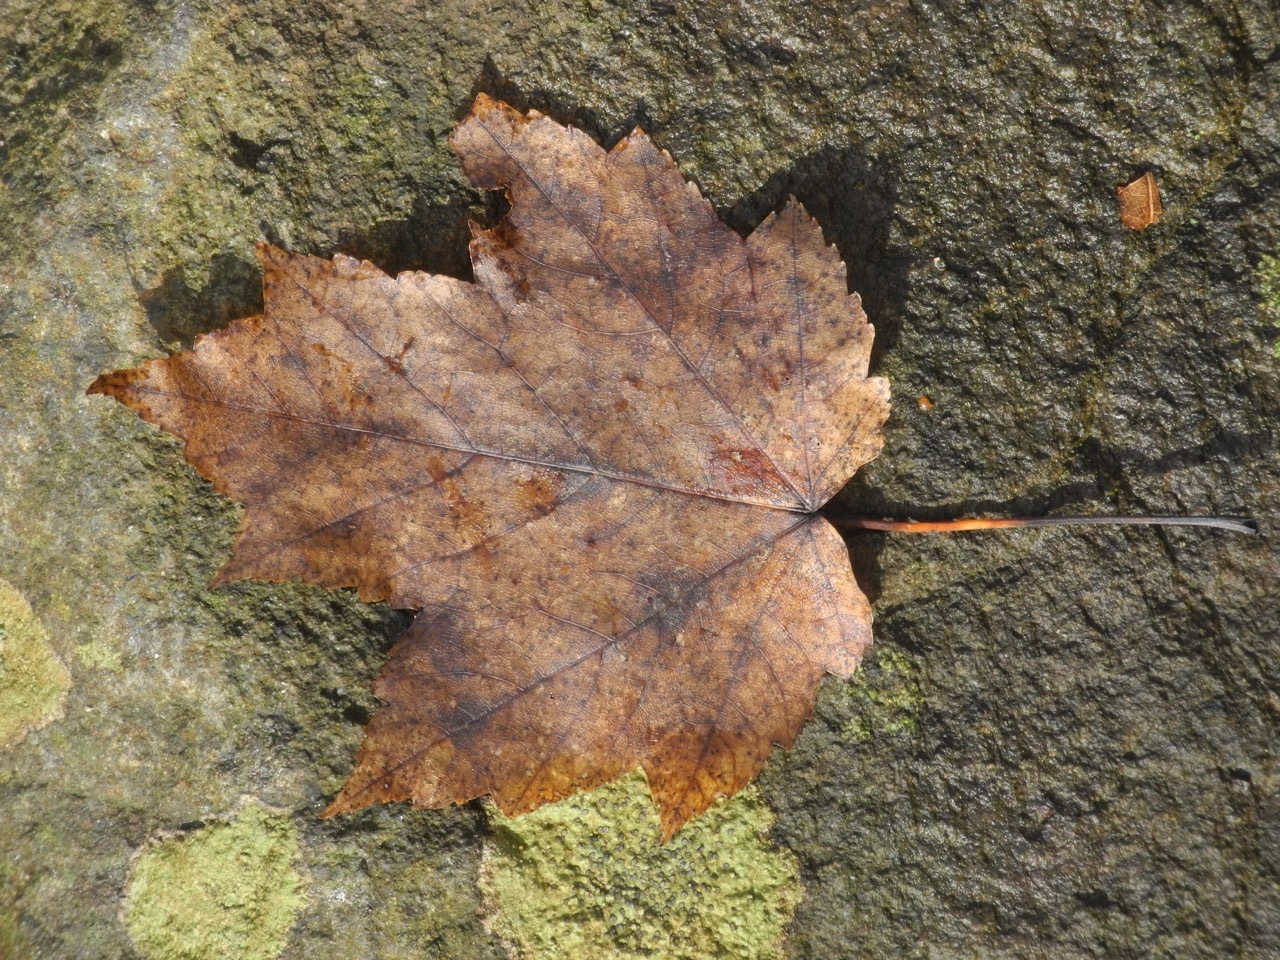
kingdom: Plantae
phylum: Tracheophyta
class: Magnoliopsida
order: Sapindales
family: Sapindaceae
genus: Acer
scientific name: Acer freemanii
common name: Freeman maple
